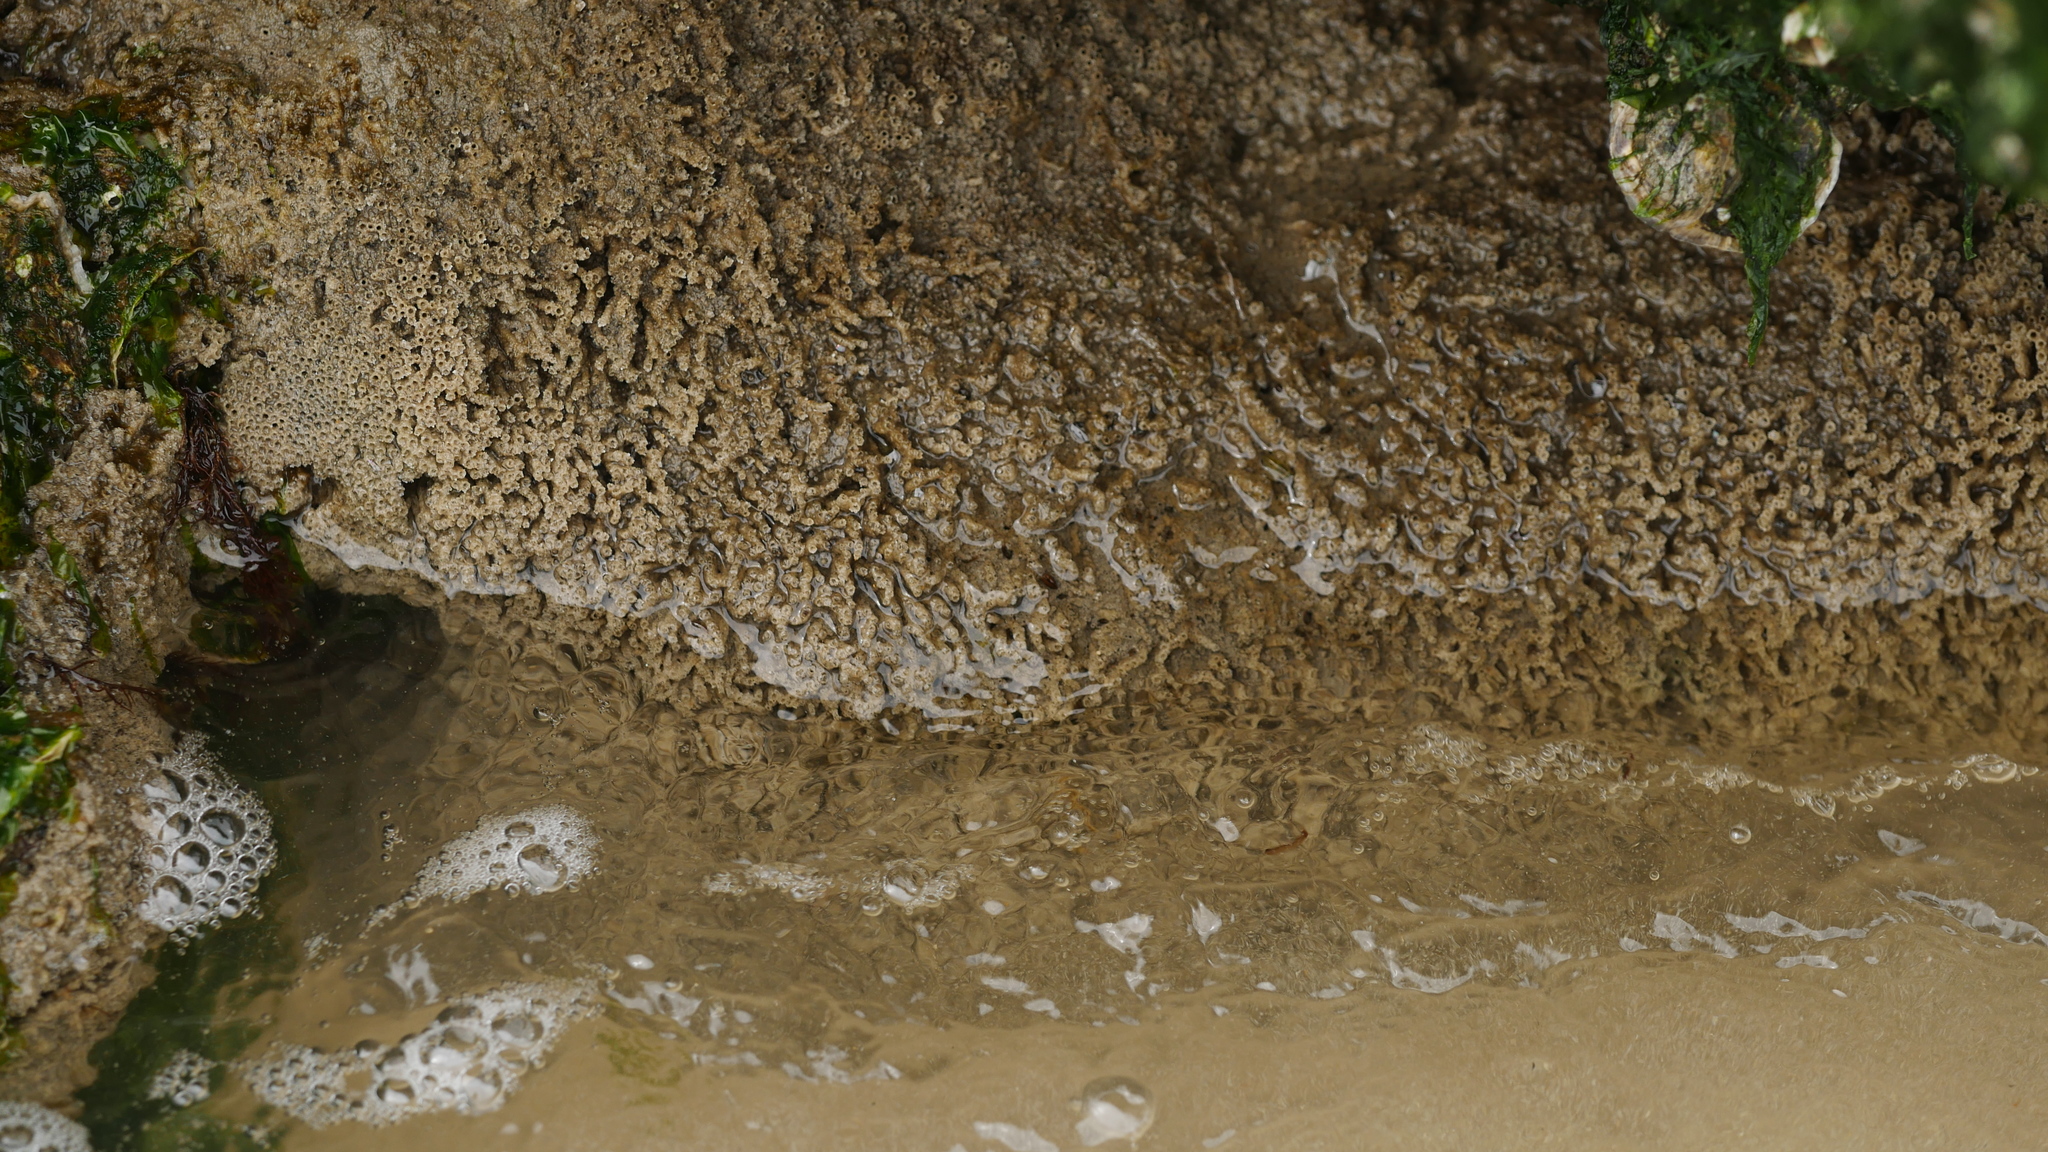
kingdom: Animalia
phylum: Annelida
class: Polychaeta
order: Sabellida
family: Sabellariidae
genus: Phragmatopoma
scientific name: Phragmatopoma caudata
